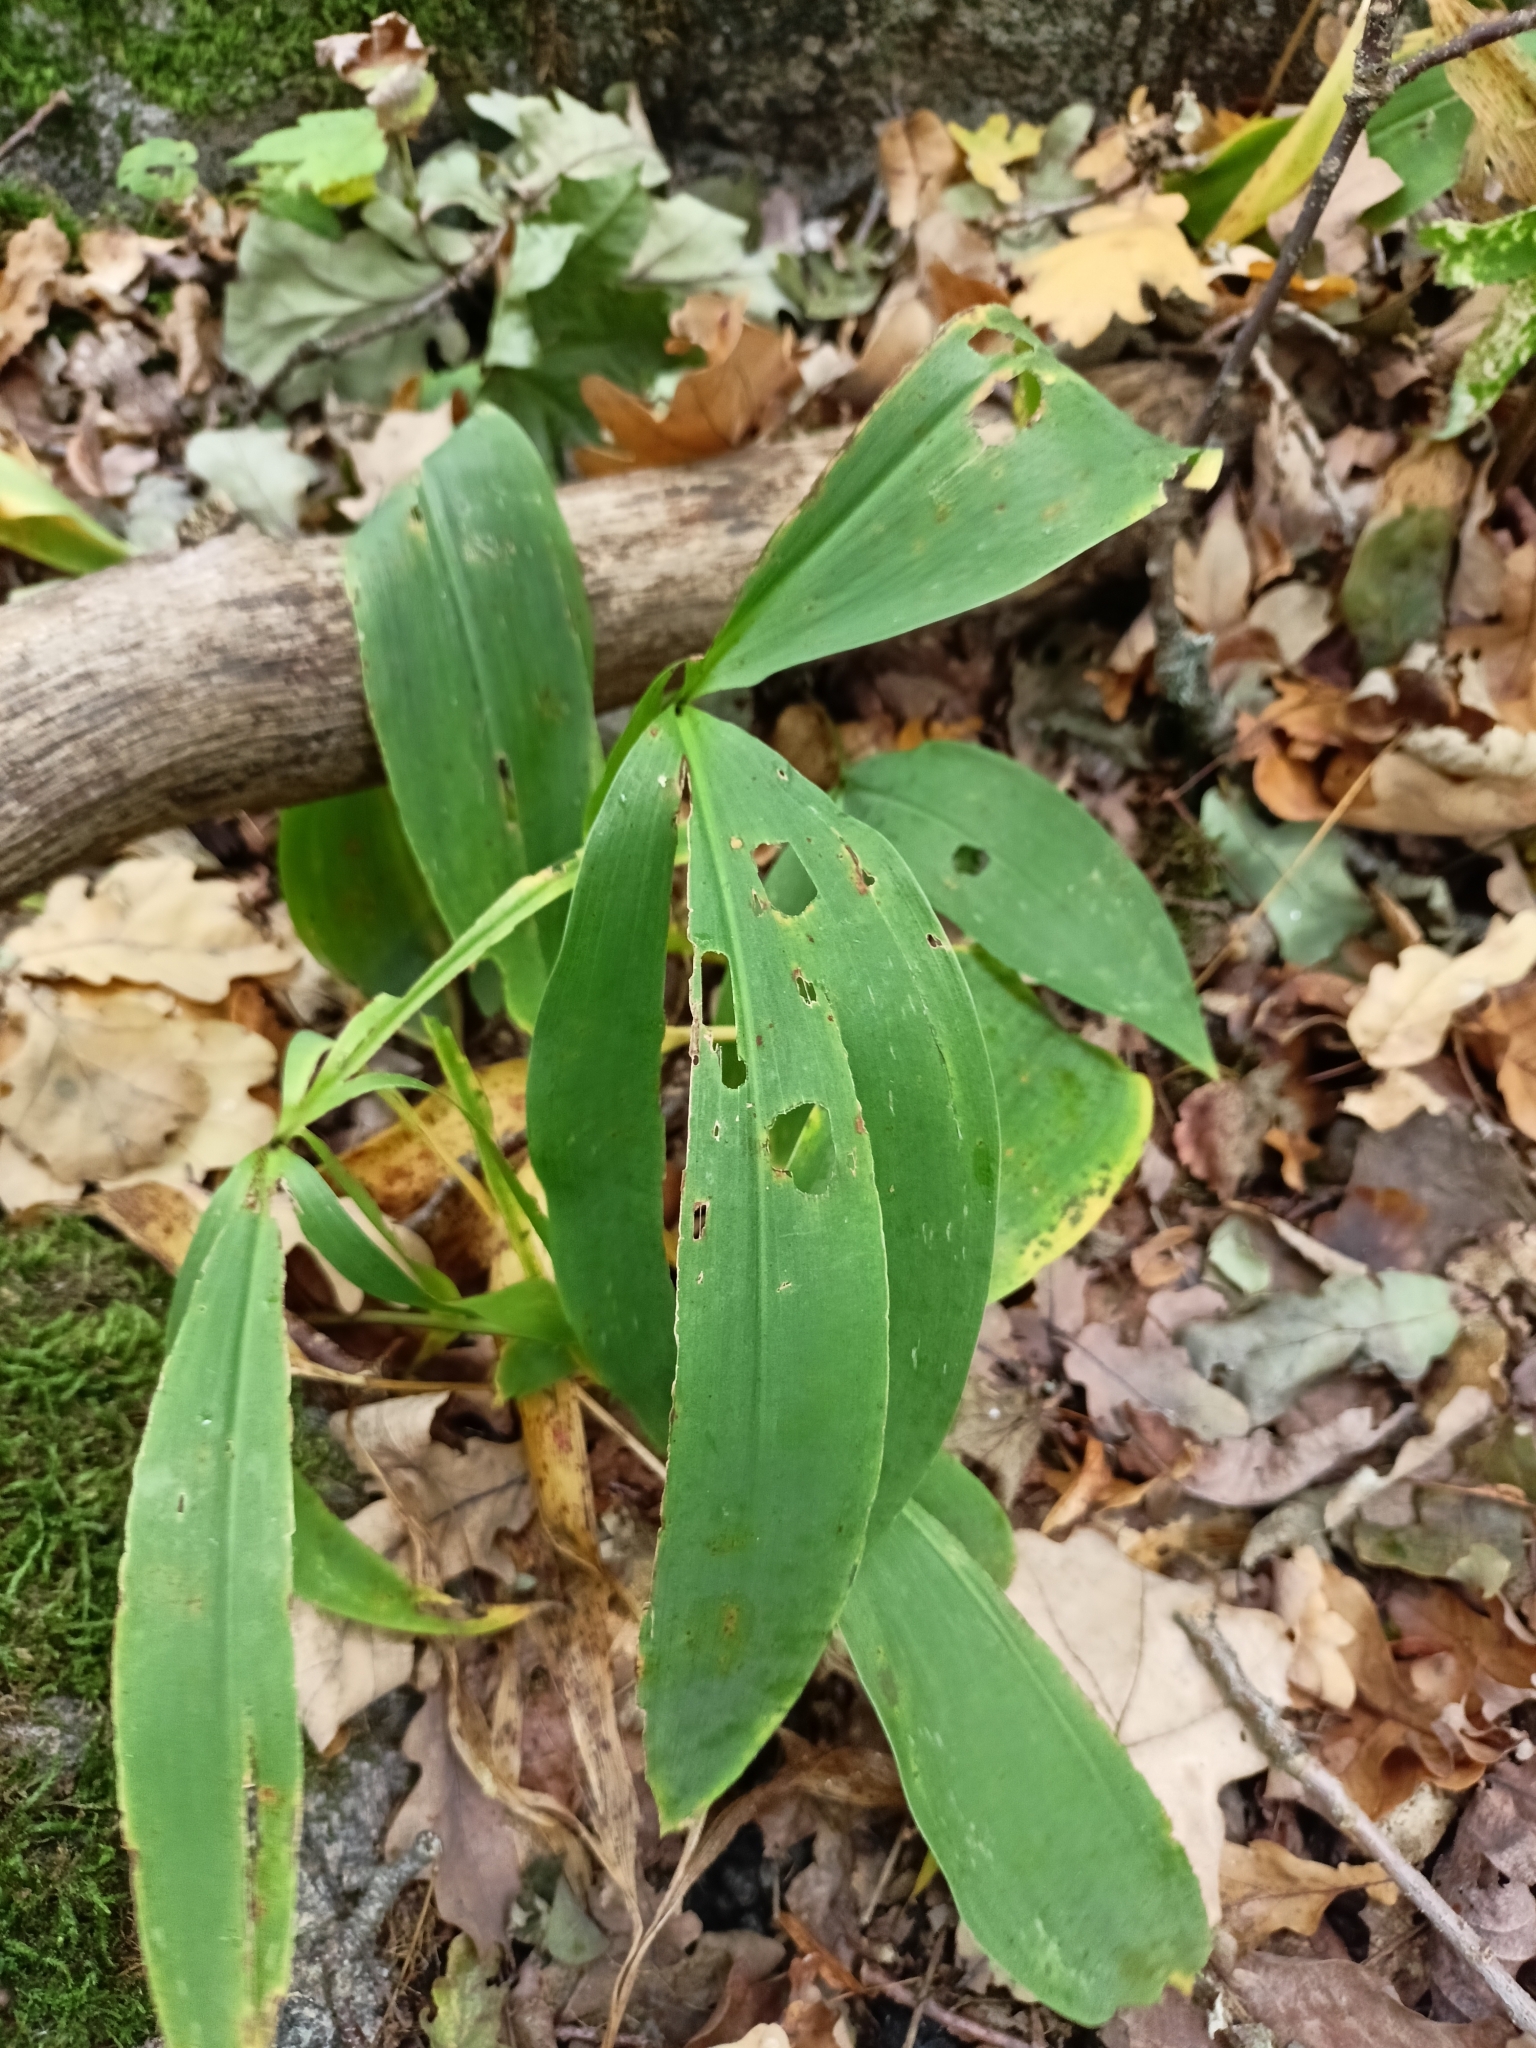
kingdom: Plantae
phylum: Tracheophyta
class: Liliopsida
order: Asparagales
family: Asparagaceae
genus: Convallaria
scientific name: Convallaria majalis
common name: Lily-of-the-valley
